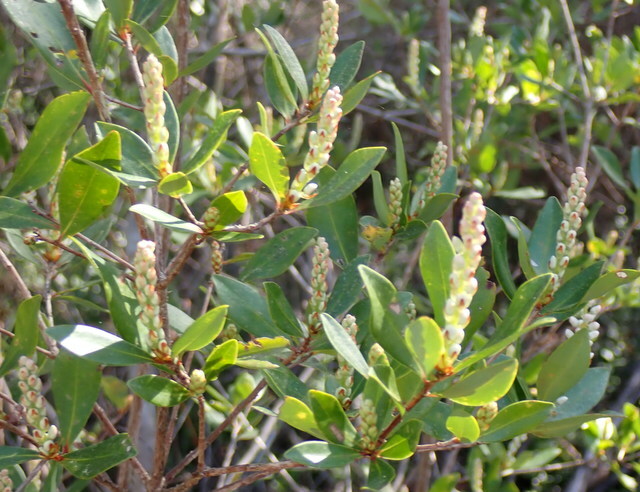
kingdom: Plantae
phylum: Tracheophyta
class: Magnoliopsida
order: Ericales
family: Cyrillaceae
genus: Cliftonia
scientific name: Cliftonia monophylla
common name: Titi
